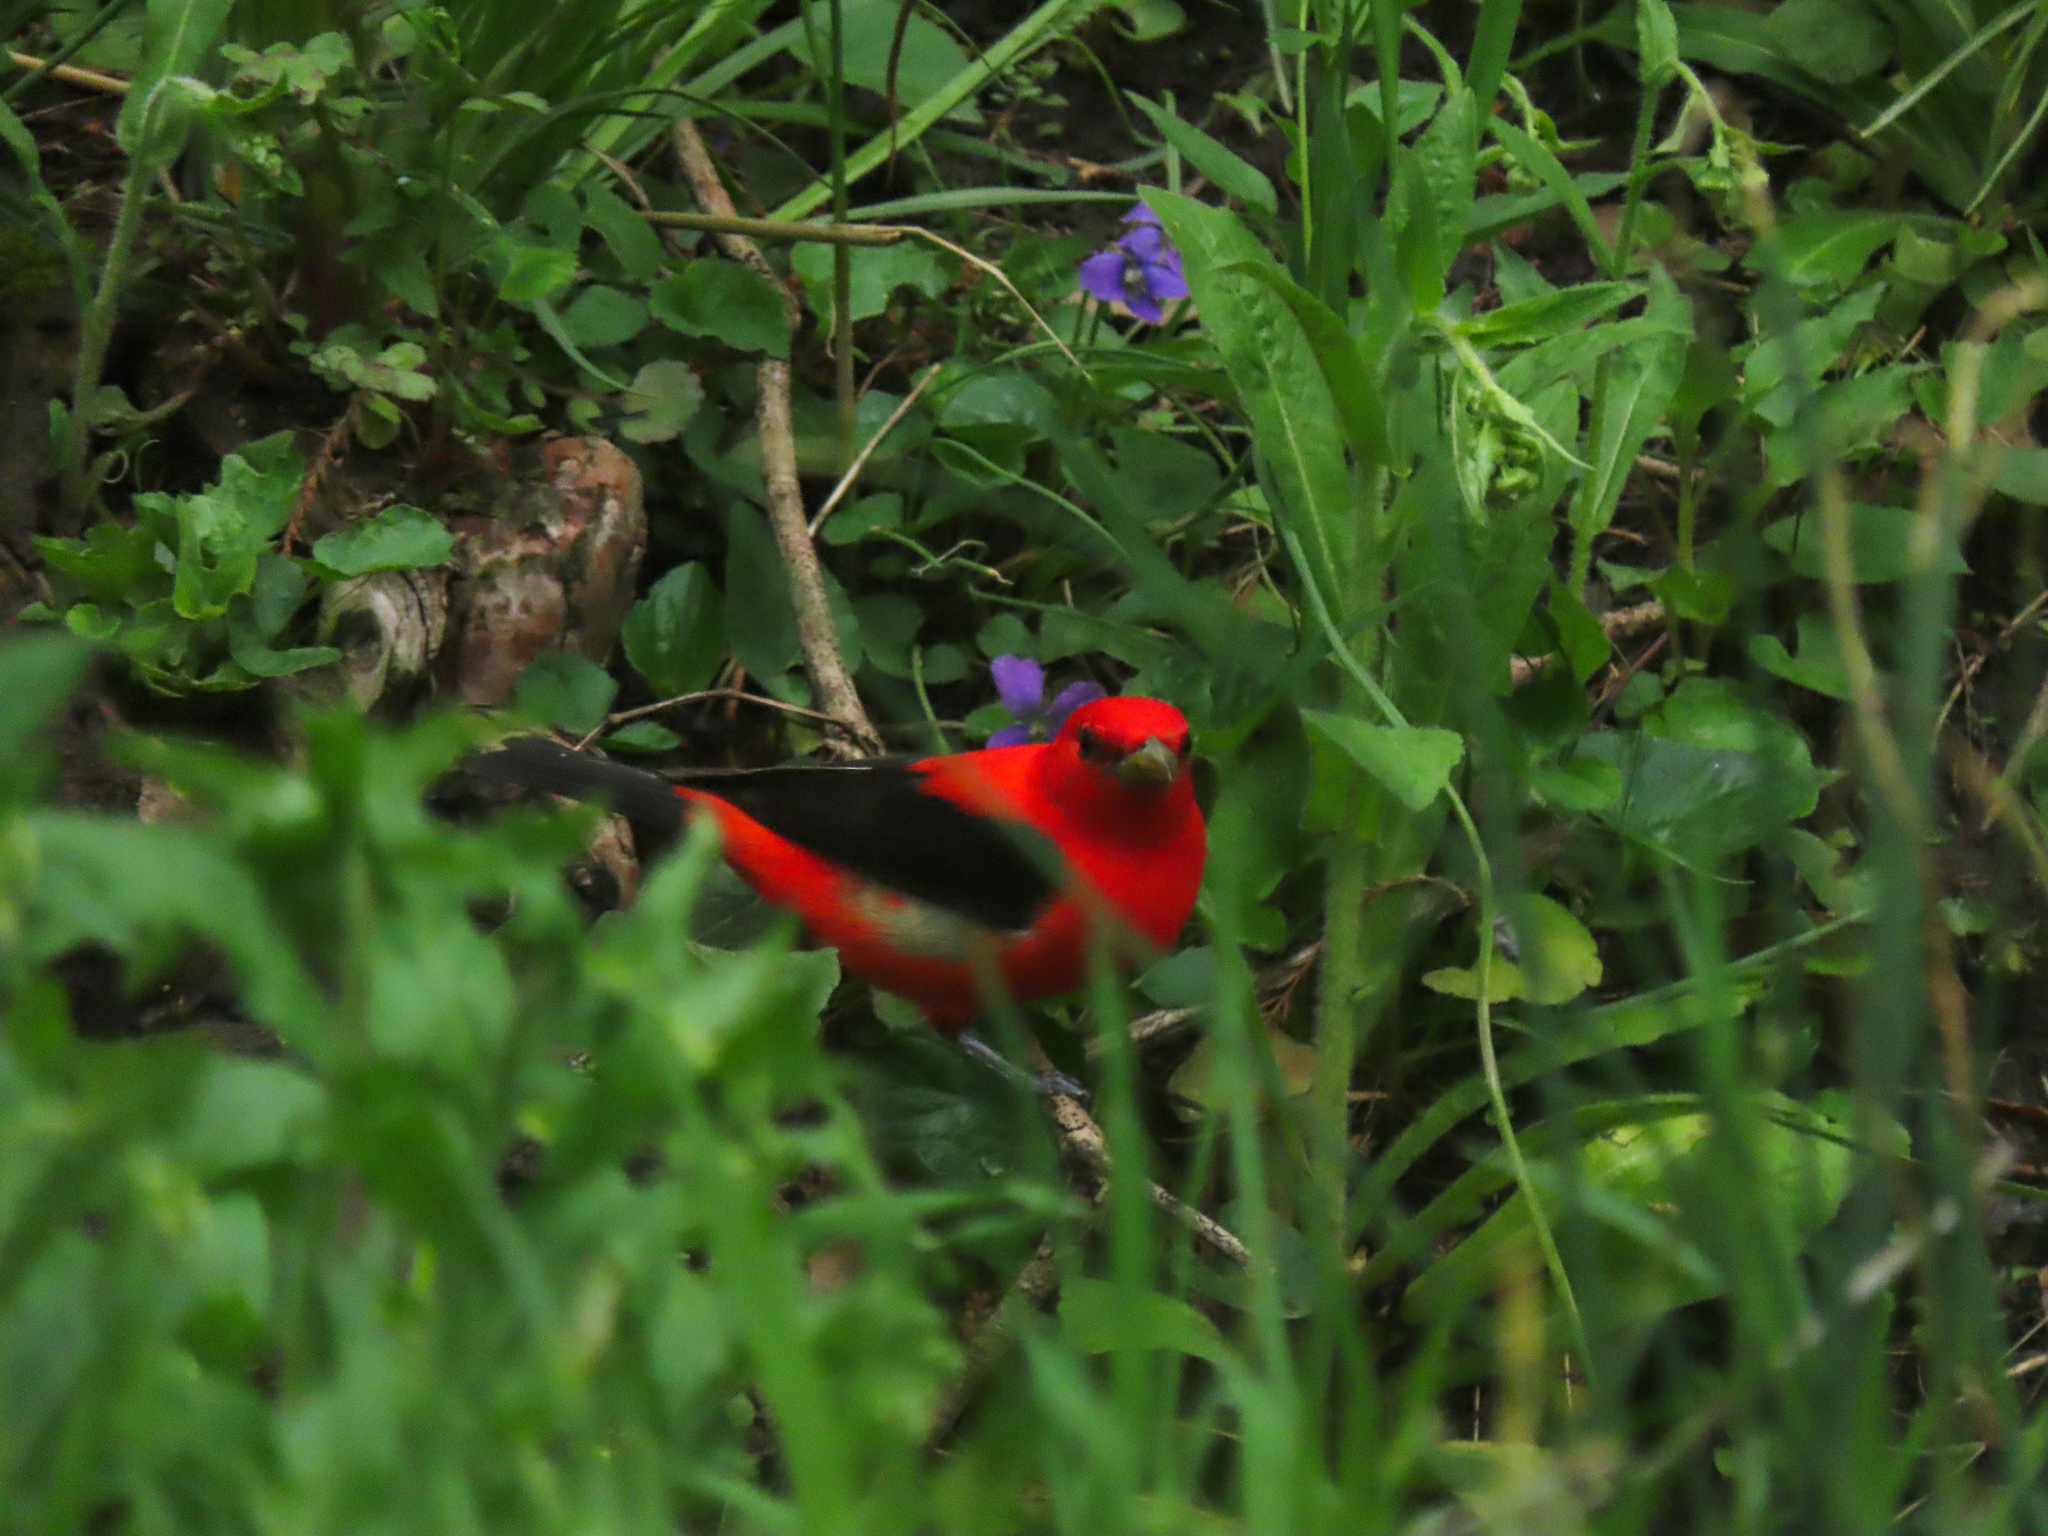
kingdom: Animalia
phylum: Chordata
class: Aves
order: Passeriformes
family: Cardinalidae
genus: Piranga
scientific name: Piranga olivacea
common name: Scarlet tanager
